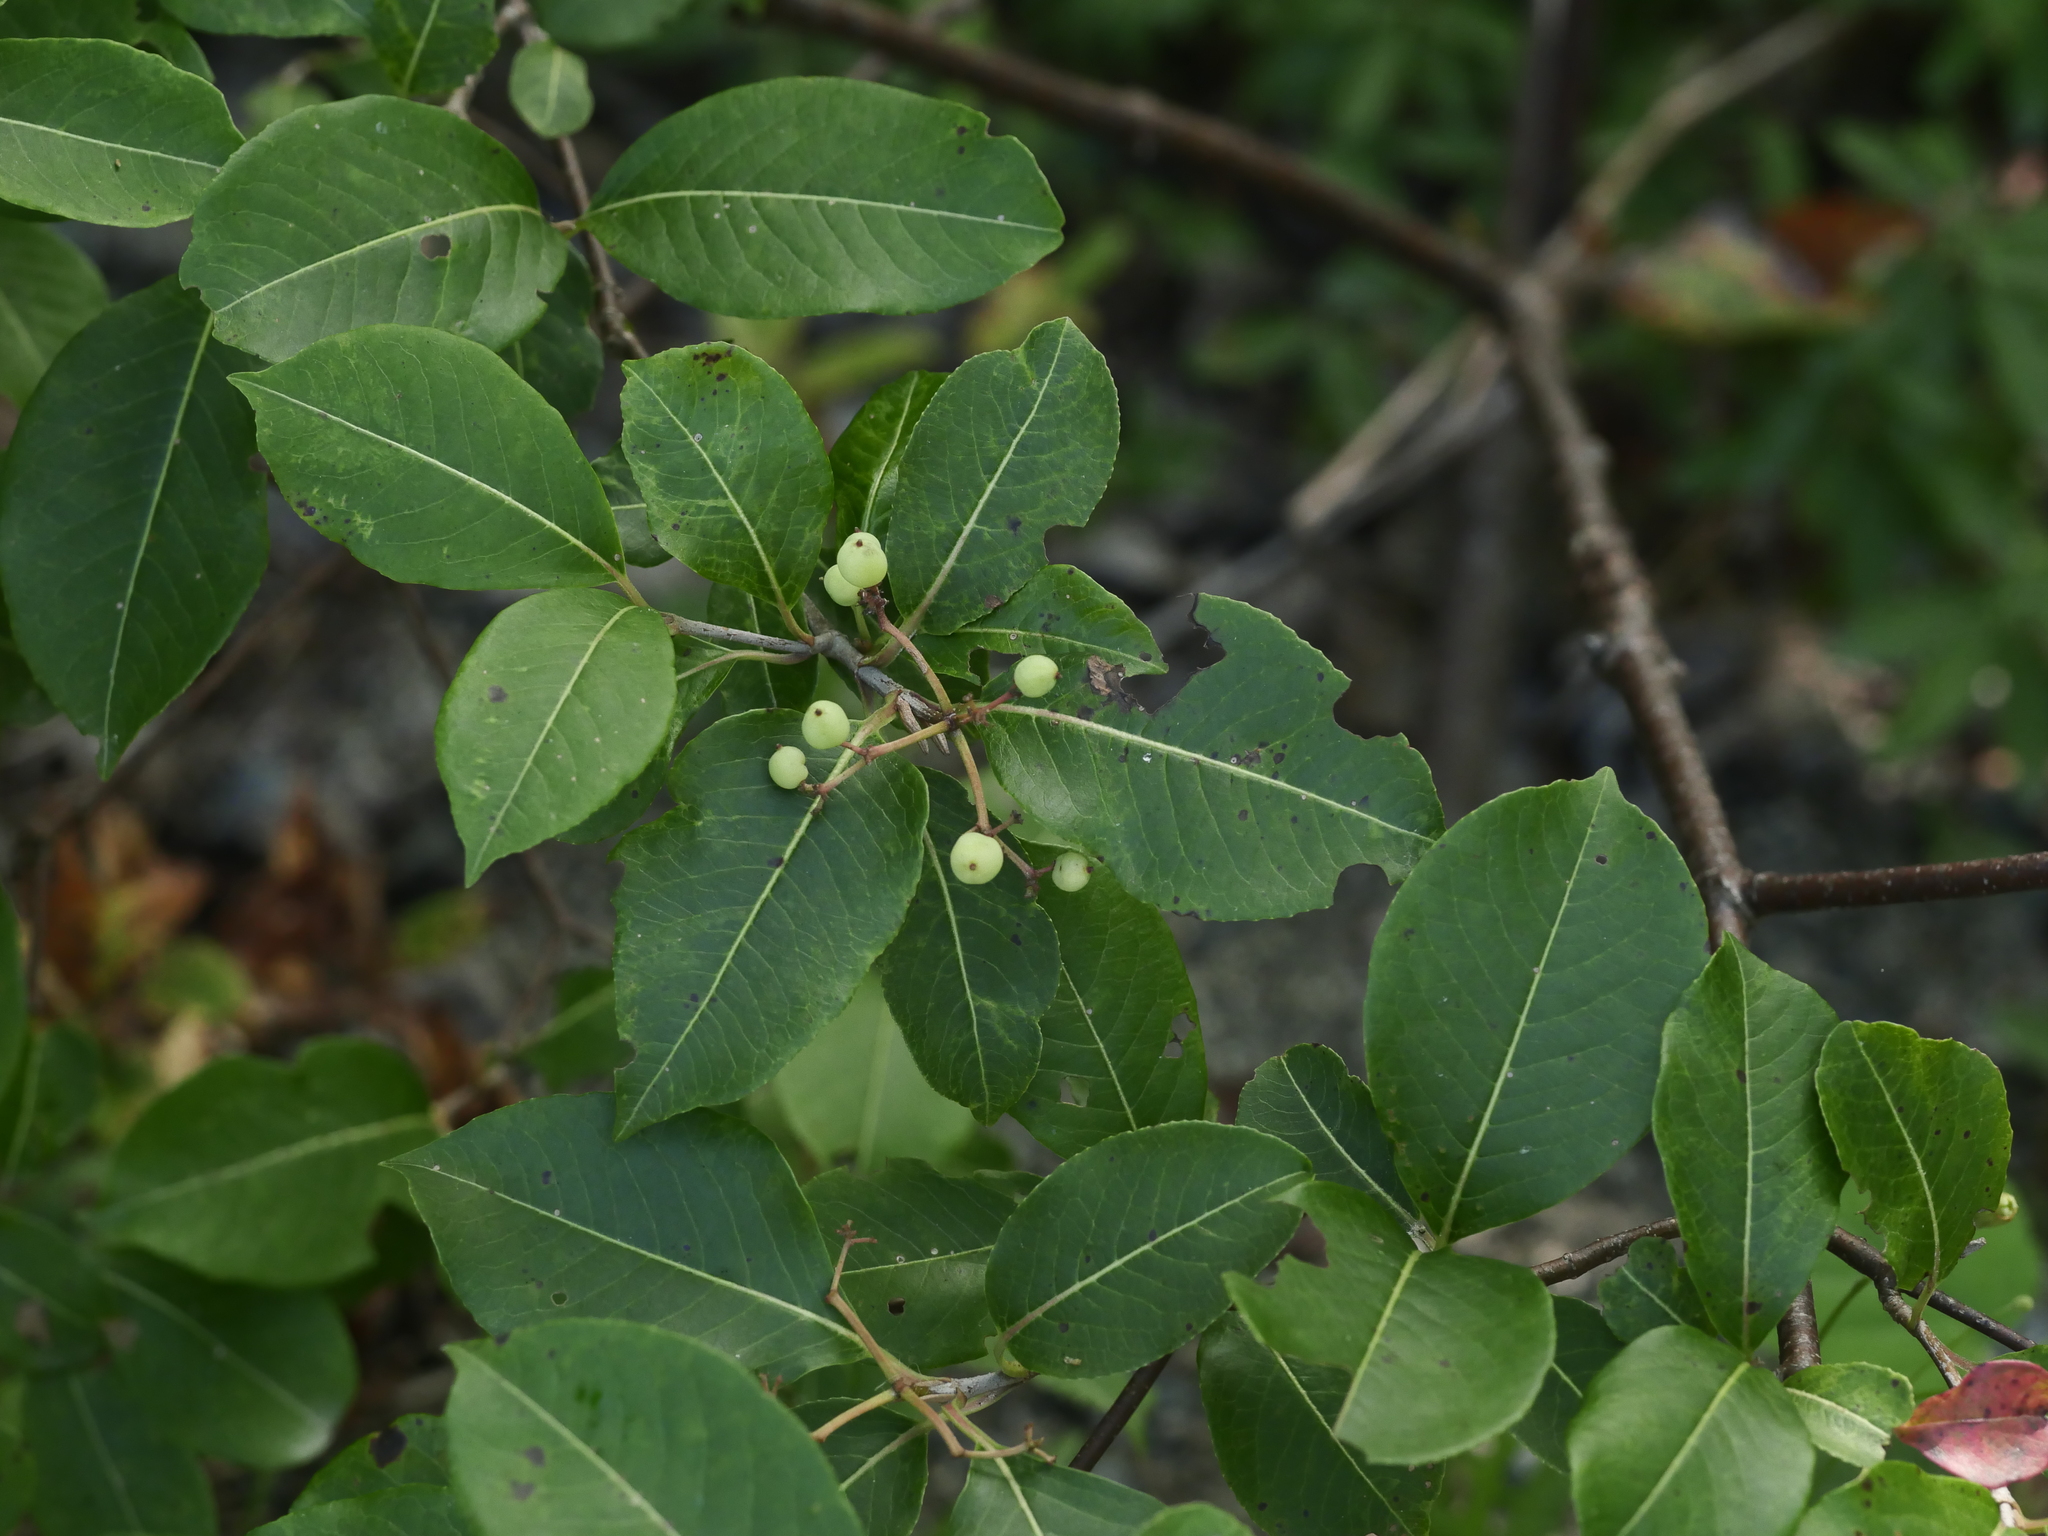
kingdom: Plantae
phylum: Tracheophyta
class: Magnoliopsida
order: Dipsacales
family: Viburnaceae
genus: Viburnum
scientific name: Viburnum cassinoides
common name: Swamp haw
